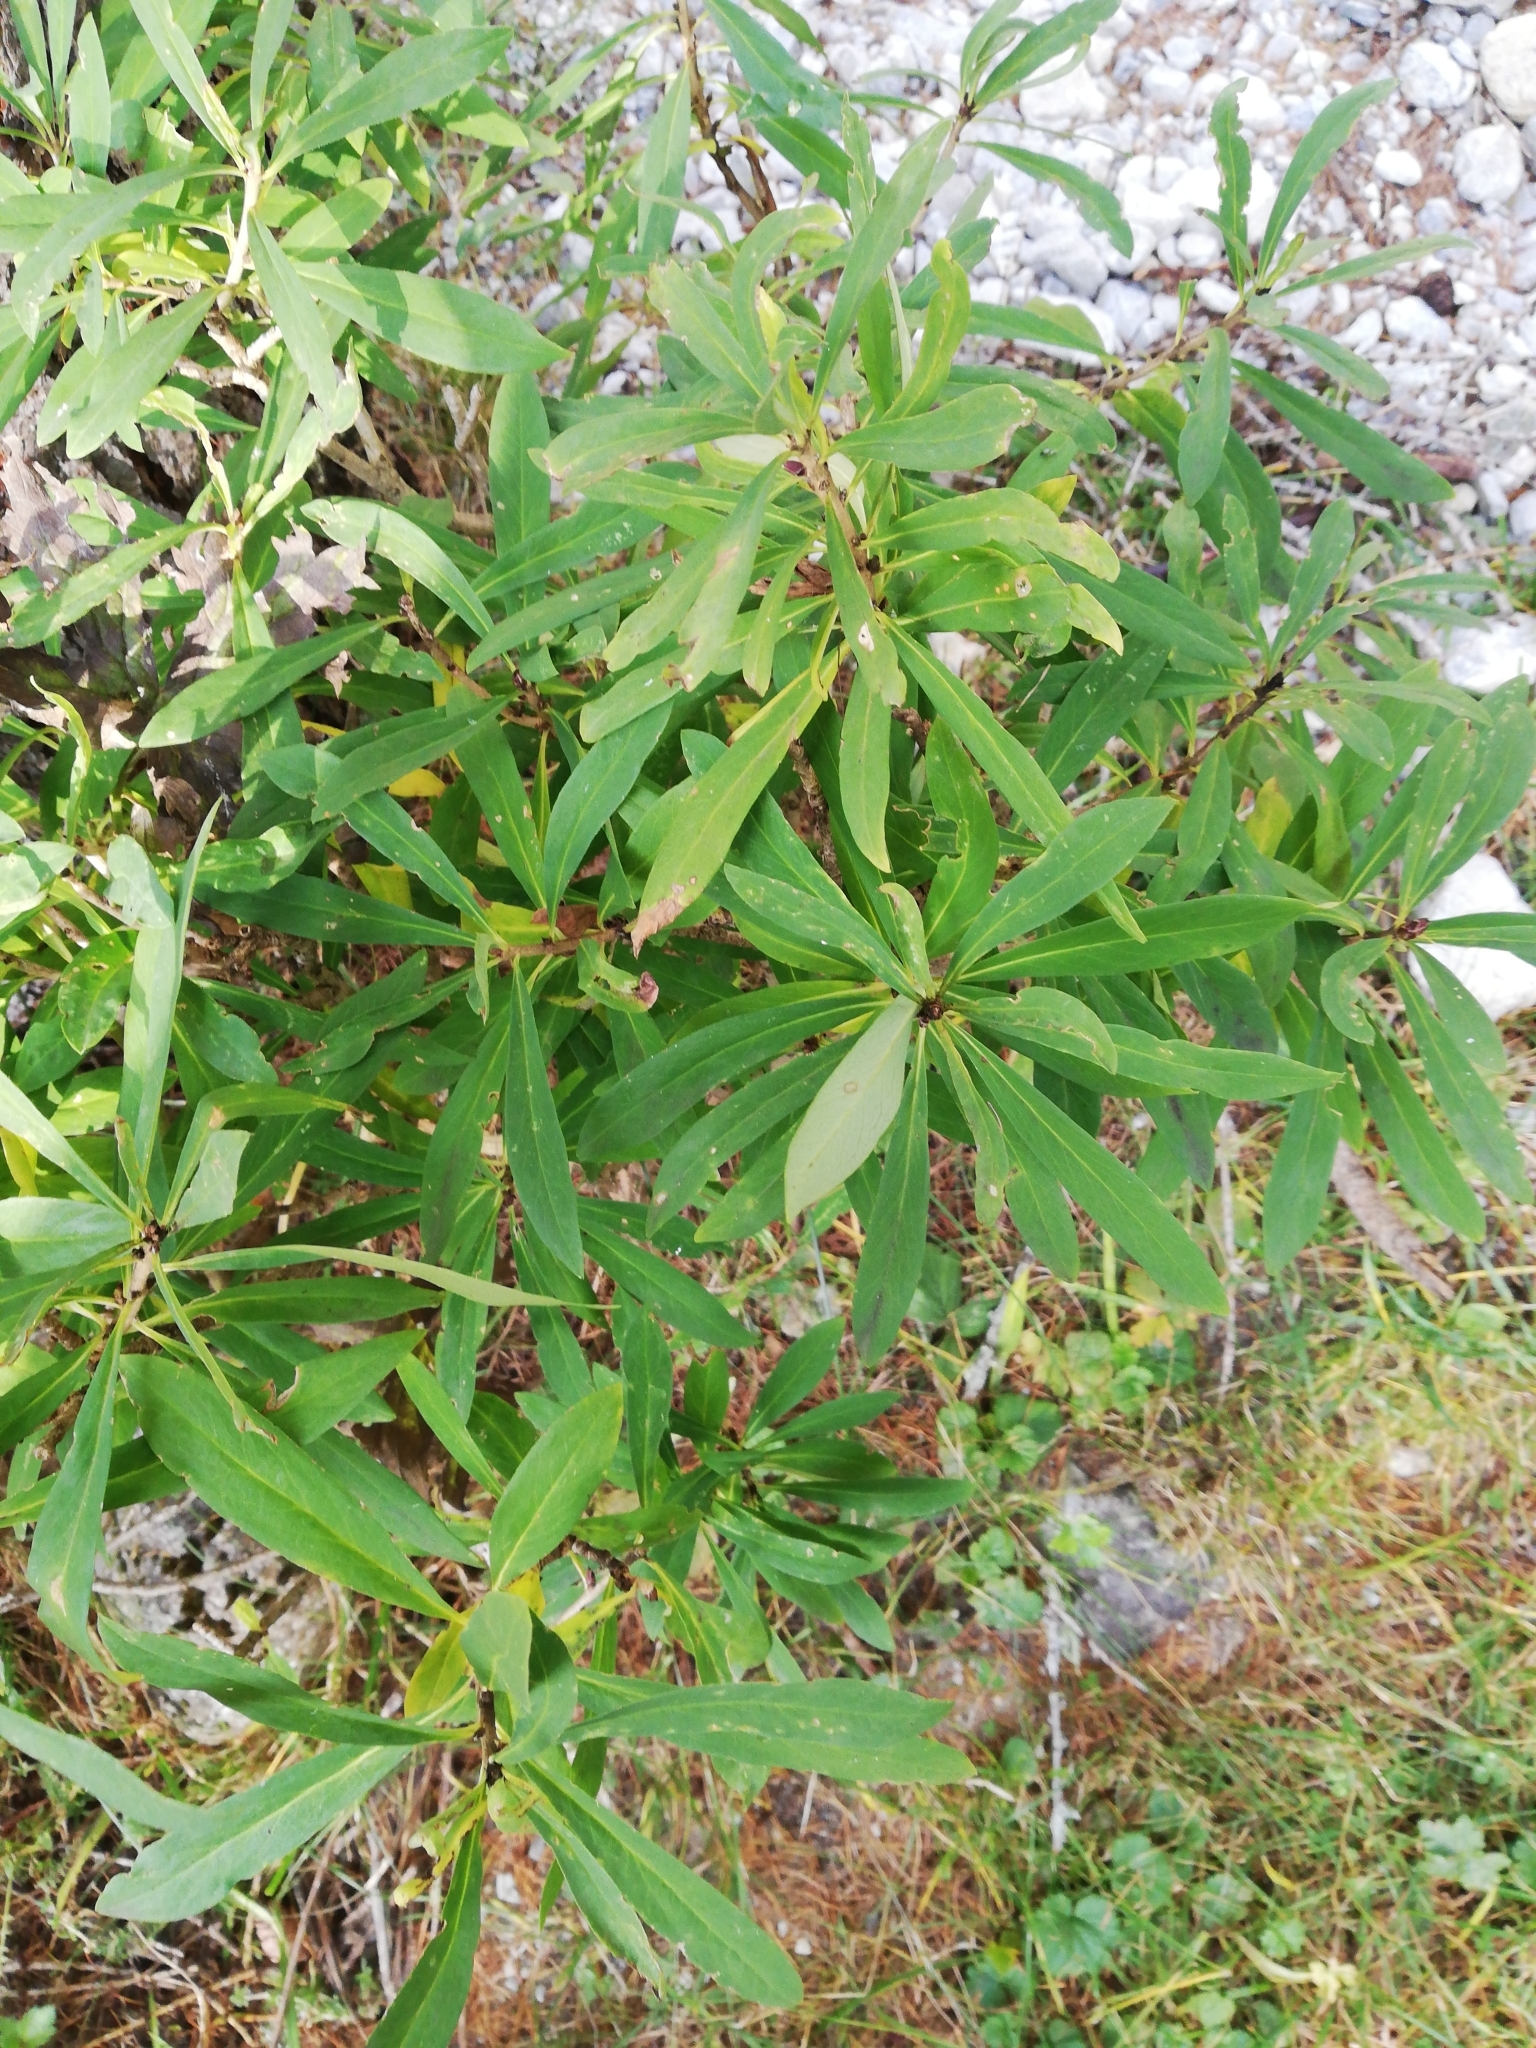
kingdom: Plantae
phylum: Tracheophyta
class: Magnoliopsida
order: Malvales
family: Thymelaeaceae
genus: Daphne
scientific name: Daphne mezereum
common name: Mezereon
